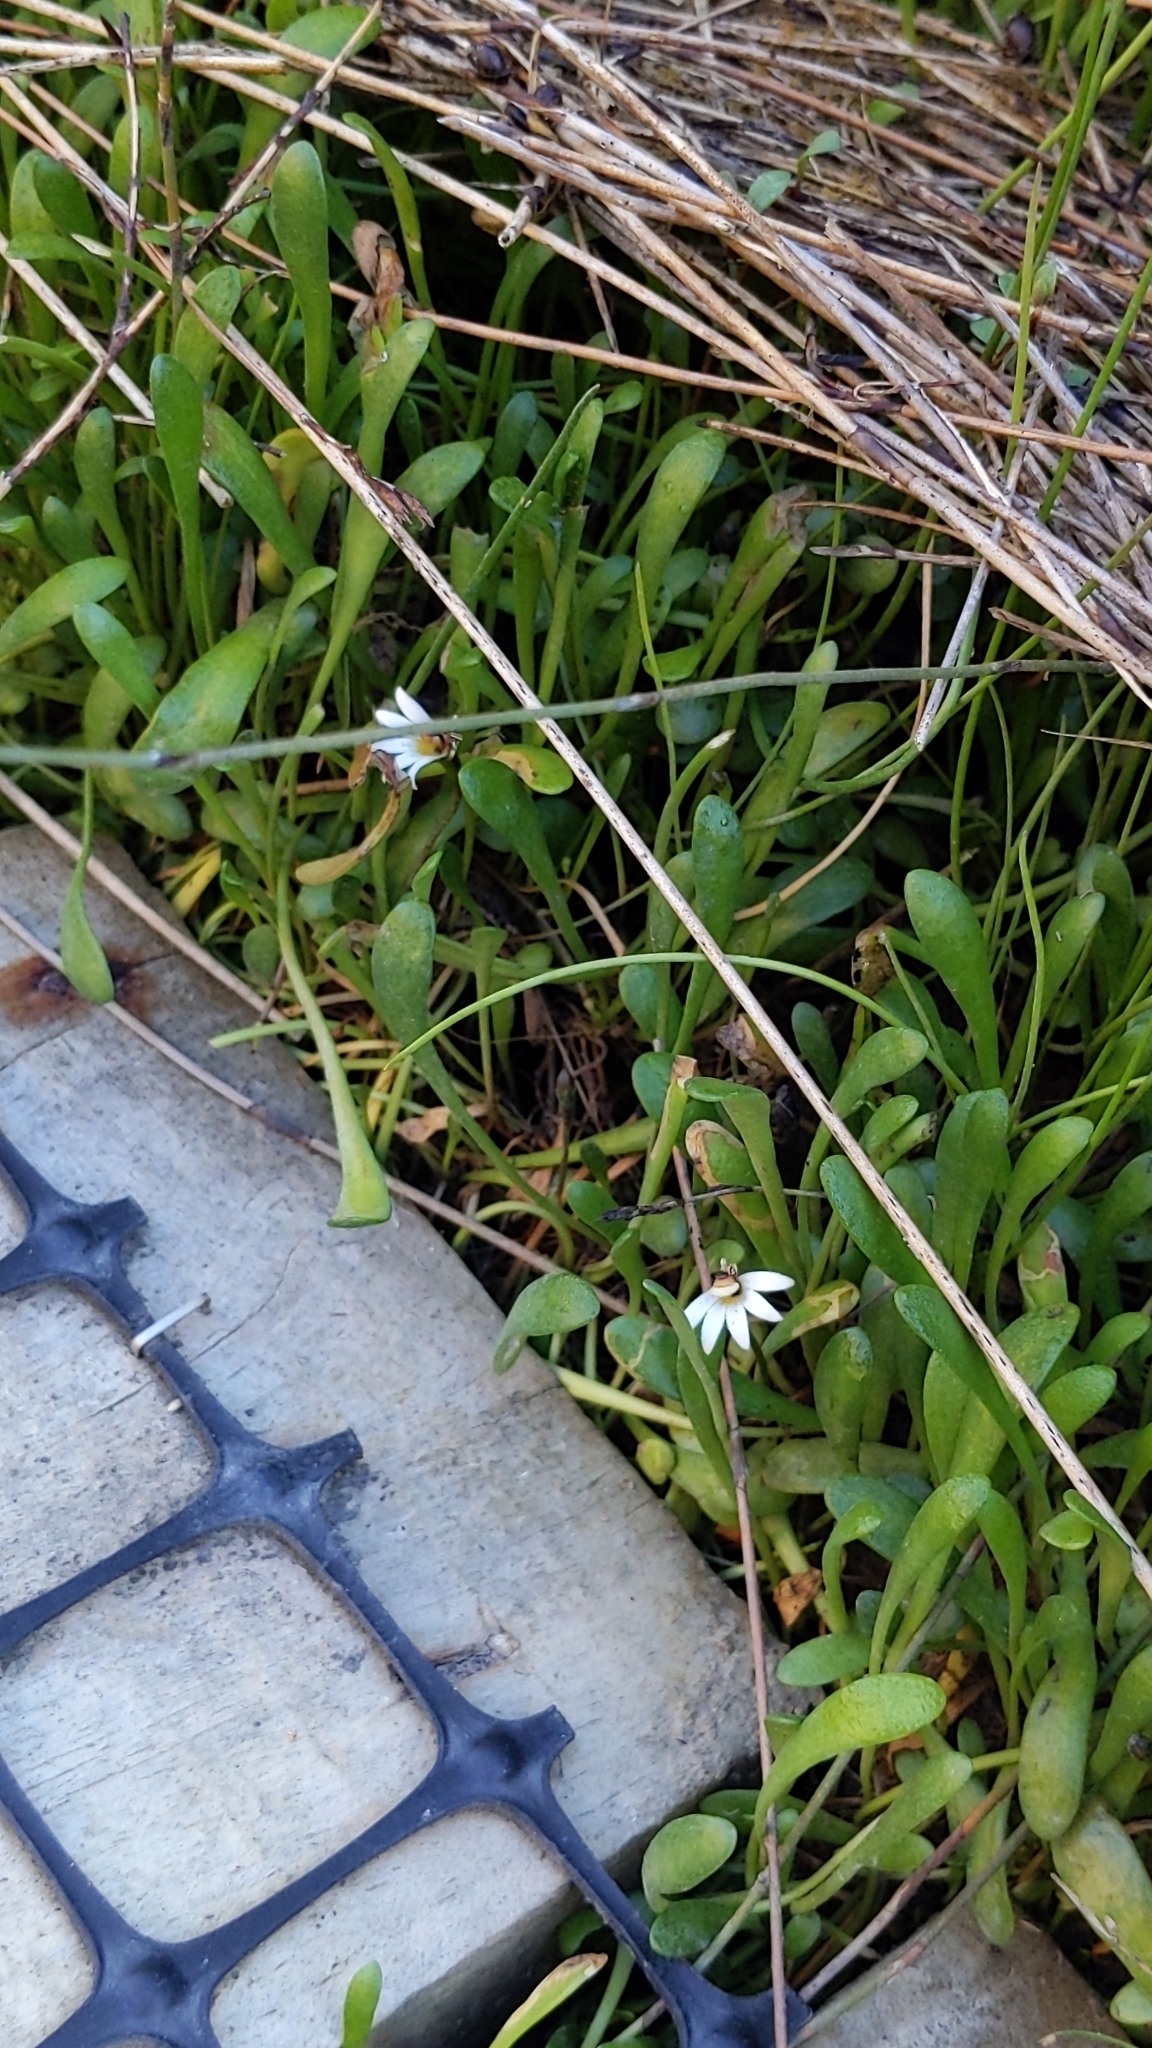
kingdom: Plantae
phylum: Tracheophyta
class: Magnoliopsida
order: Asterales
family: Goodeniaceae
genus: Goodenia
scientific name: Goodenia radicans
